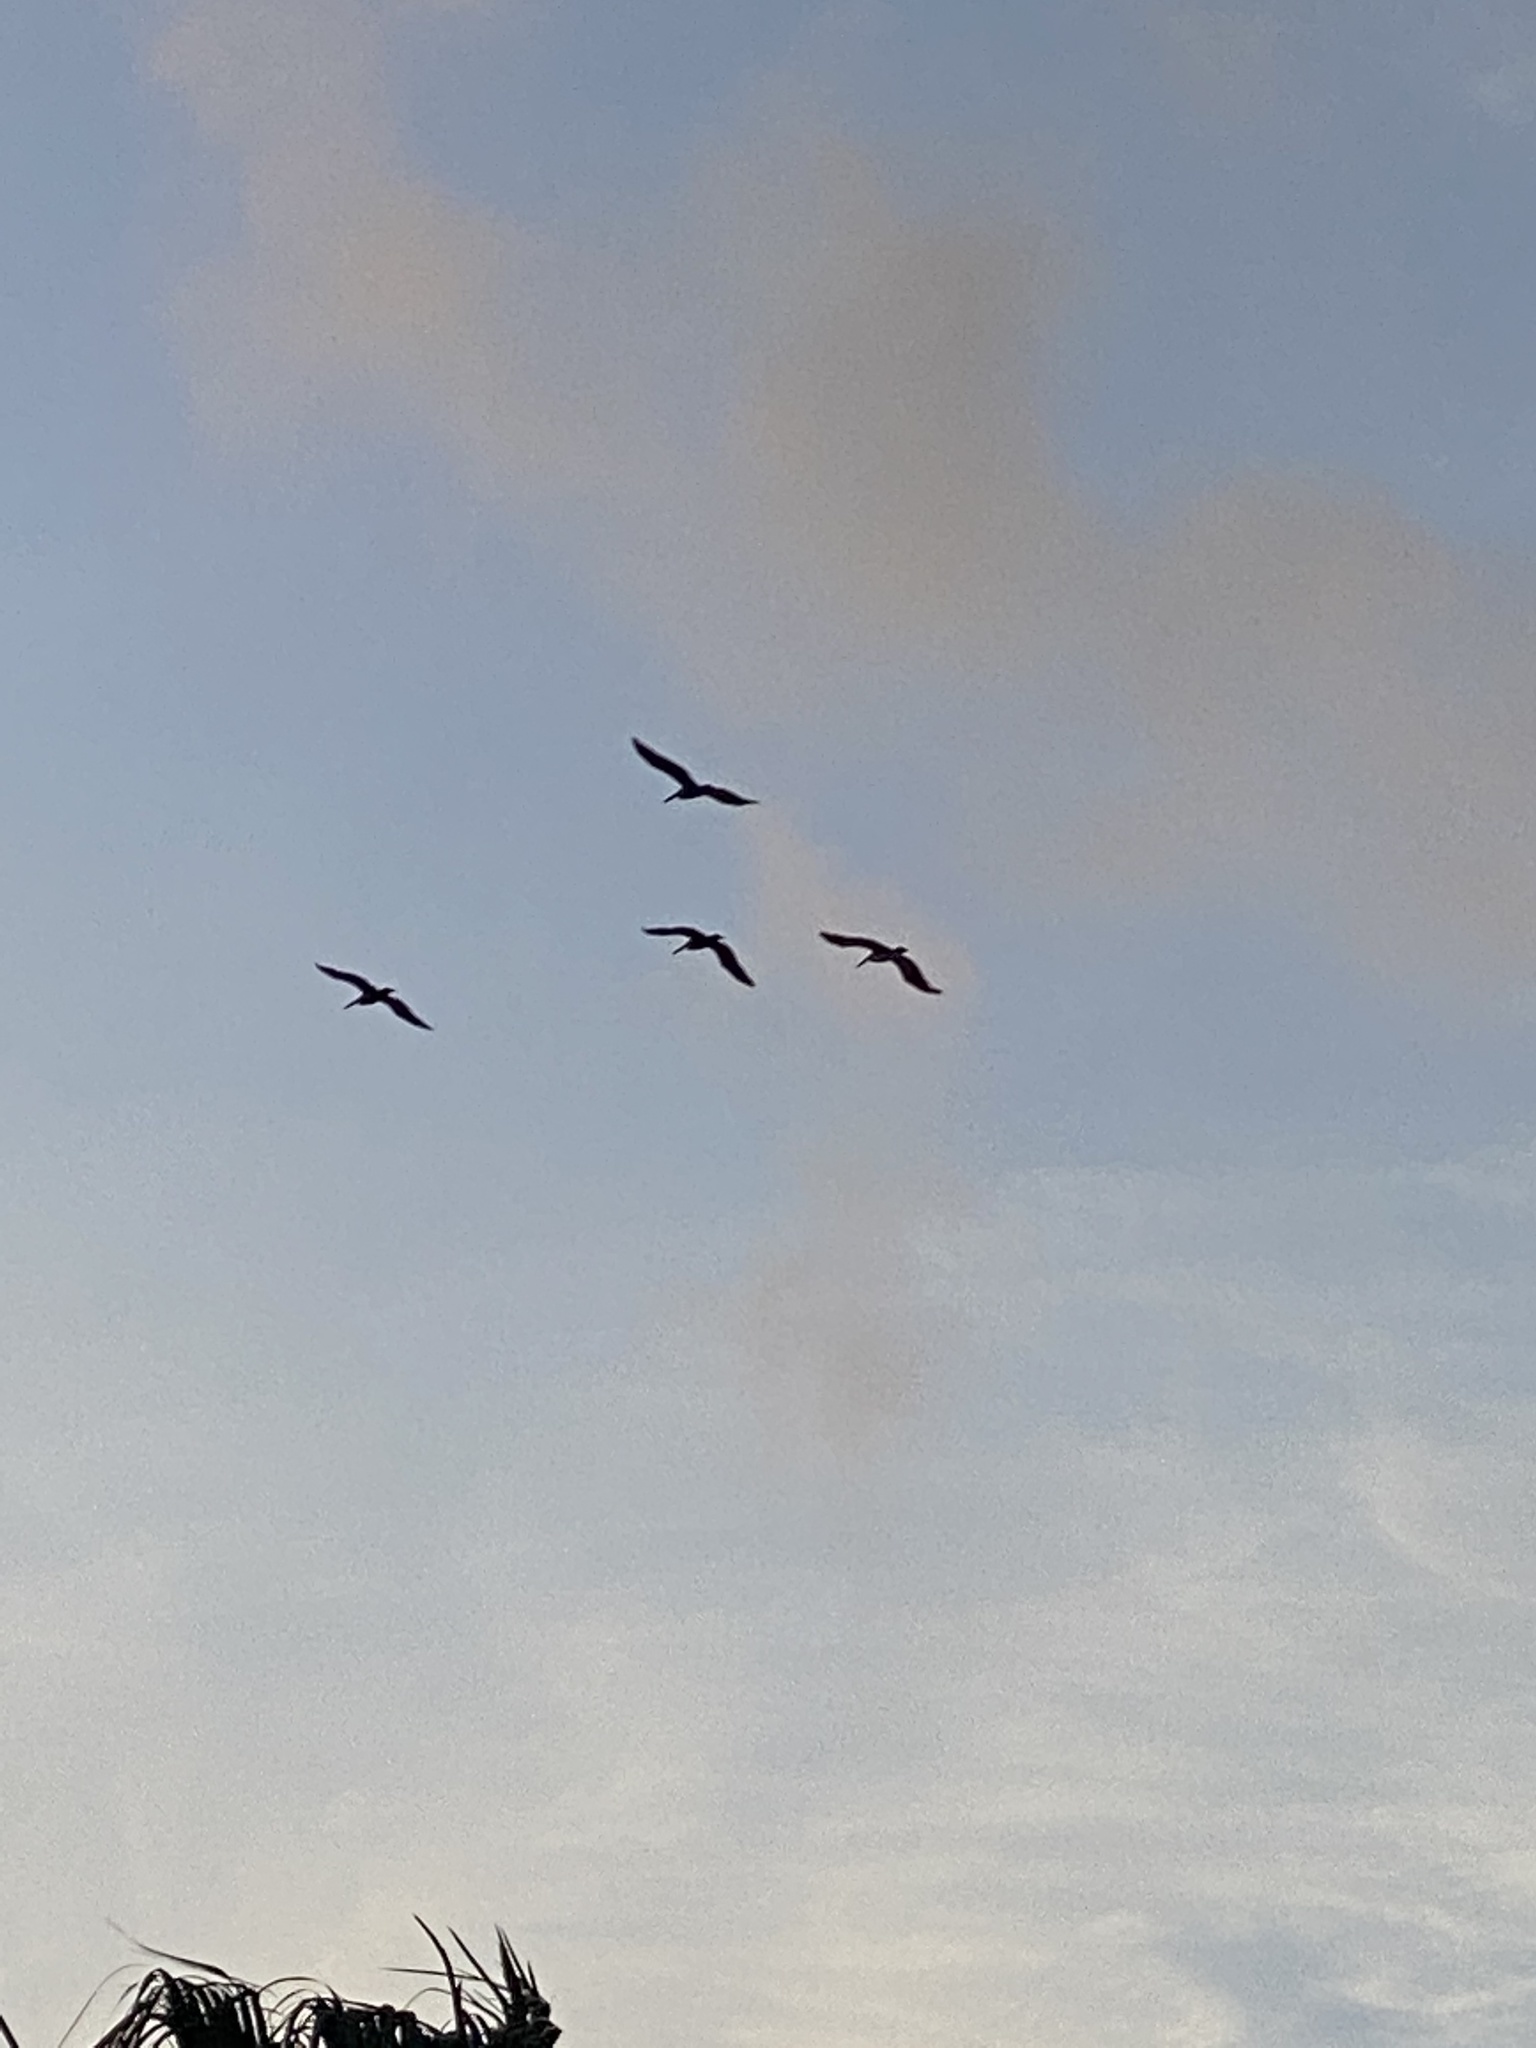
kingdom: Animalia
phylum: Chordata
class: Aves
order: Pelecaniformes
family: Pelecanidae
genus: Pelecanus
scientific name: Pelecanus occidentalis
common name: Brown pelican
